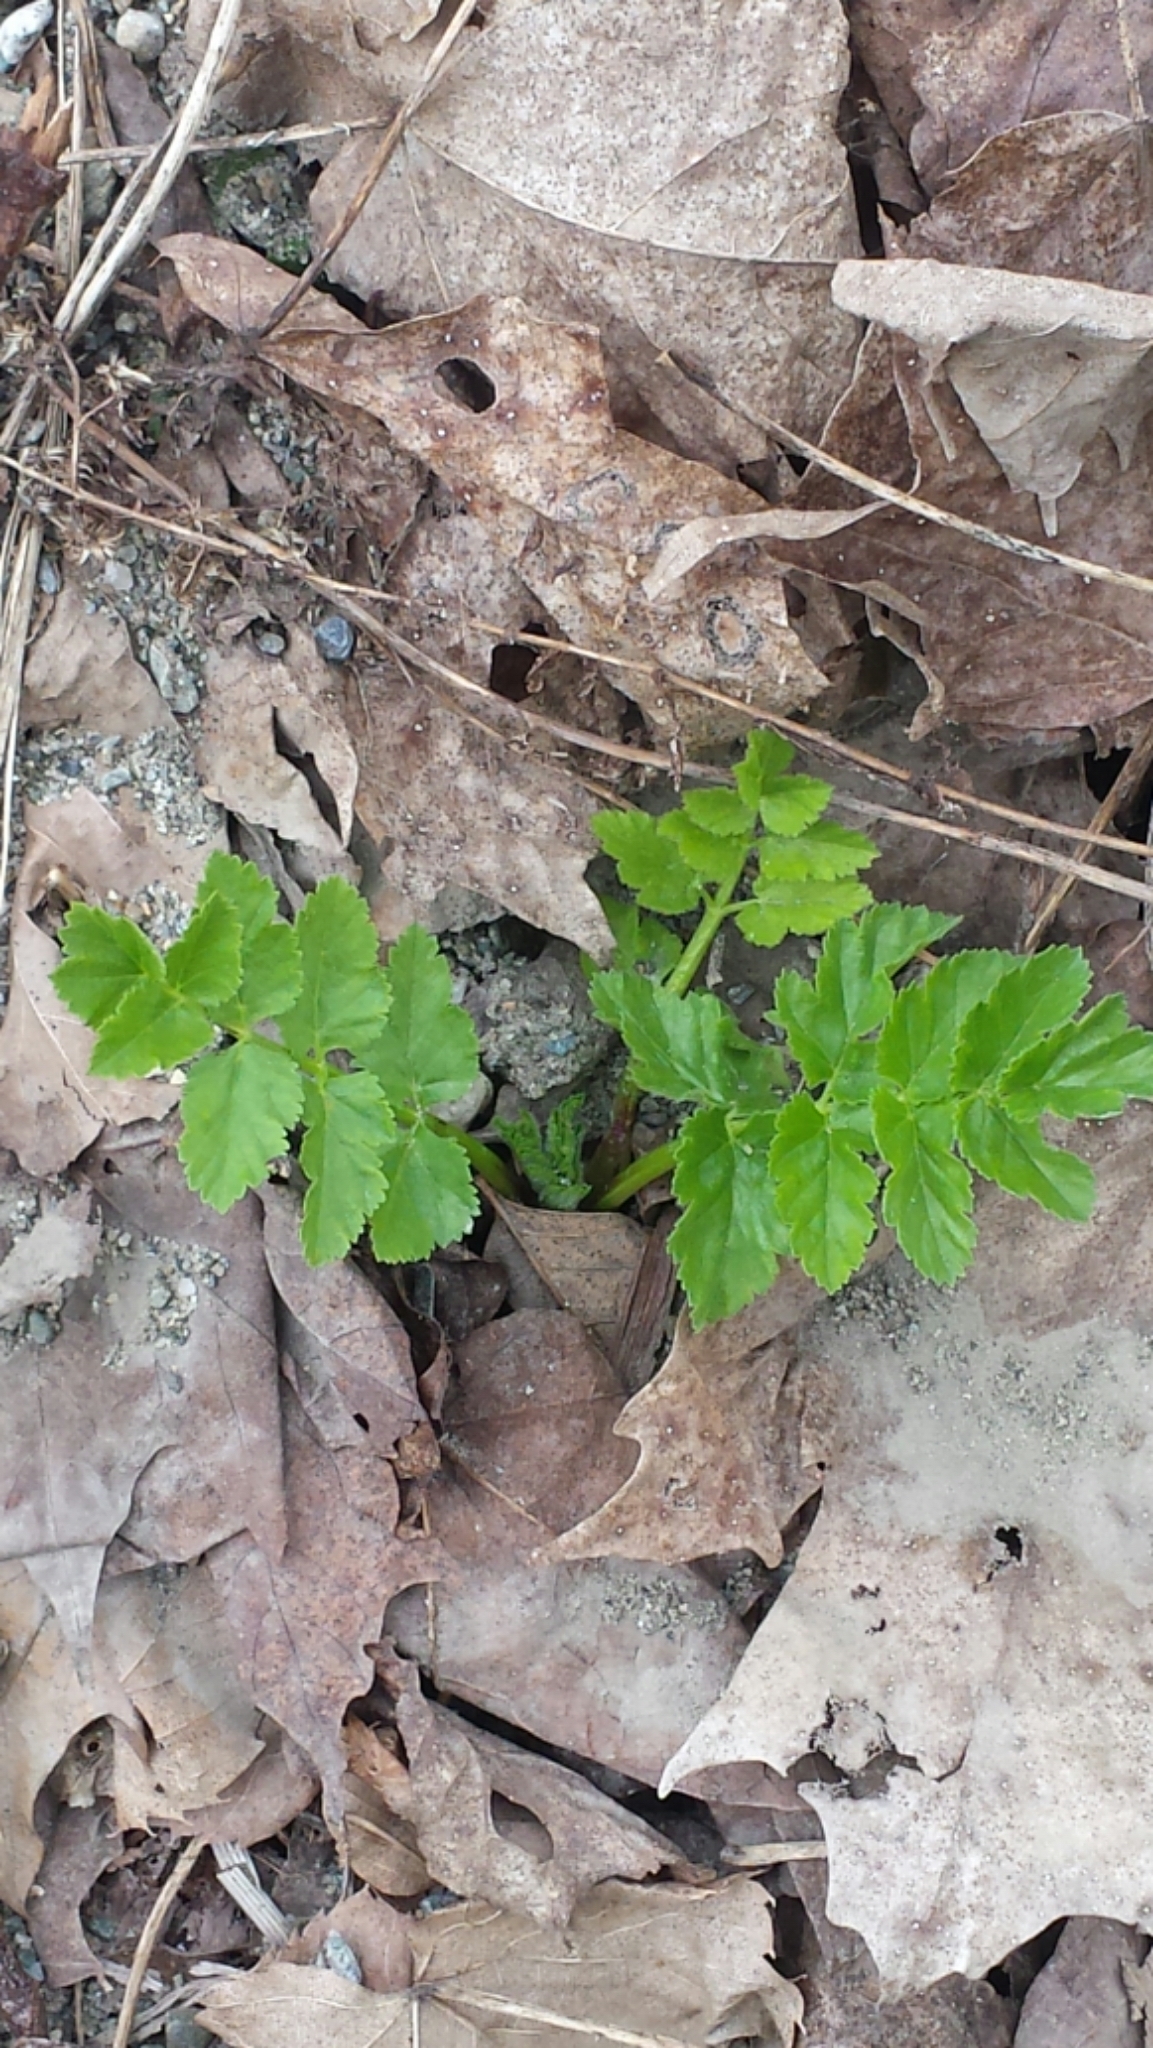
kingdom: Plantae
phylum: Tracheophyta
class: Magnoliopsida
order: Apiales
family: Apiaceae
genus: Pastinaca
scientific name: Pastinaca sativa
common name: Wild parsnip
